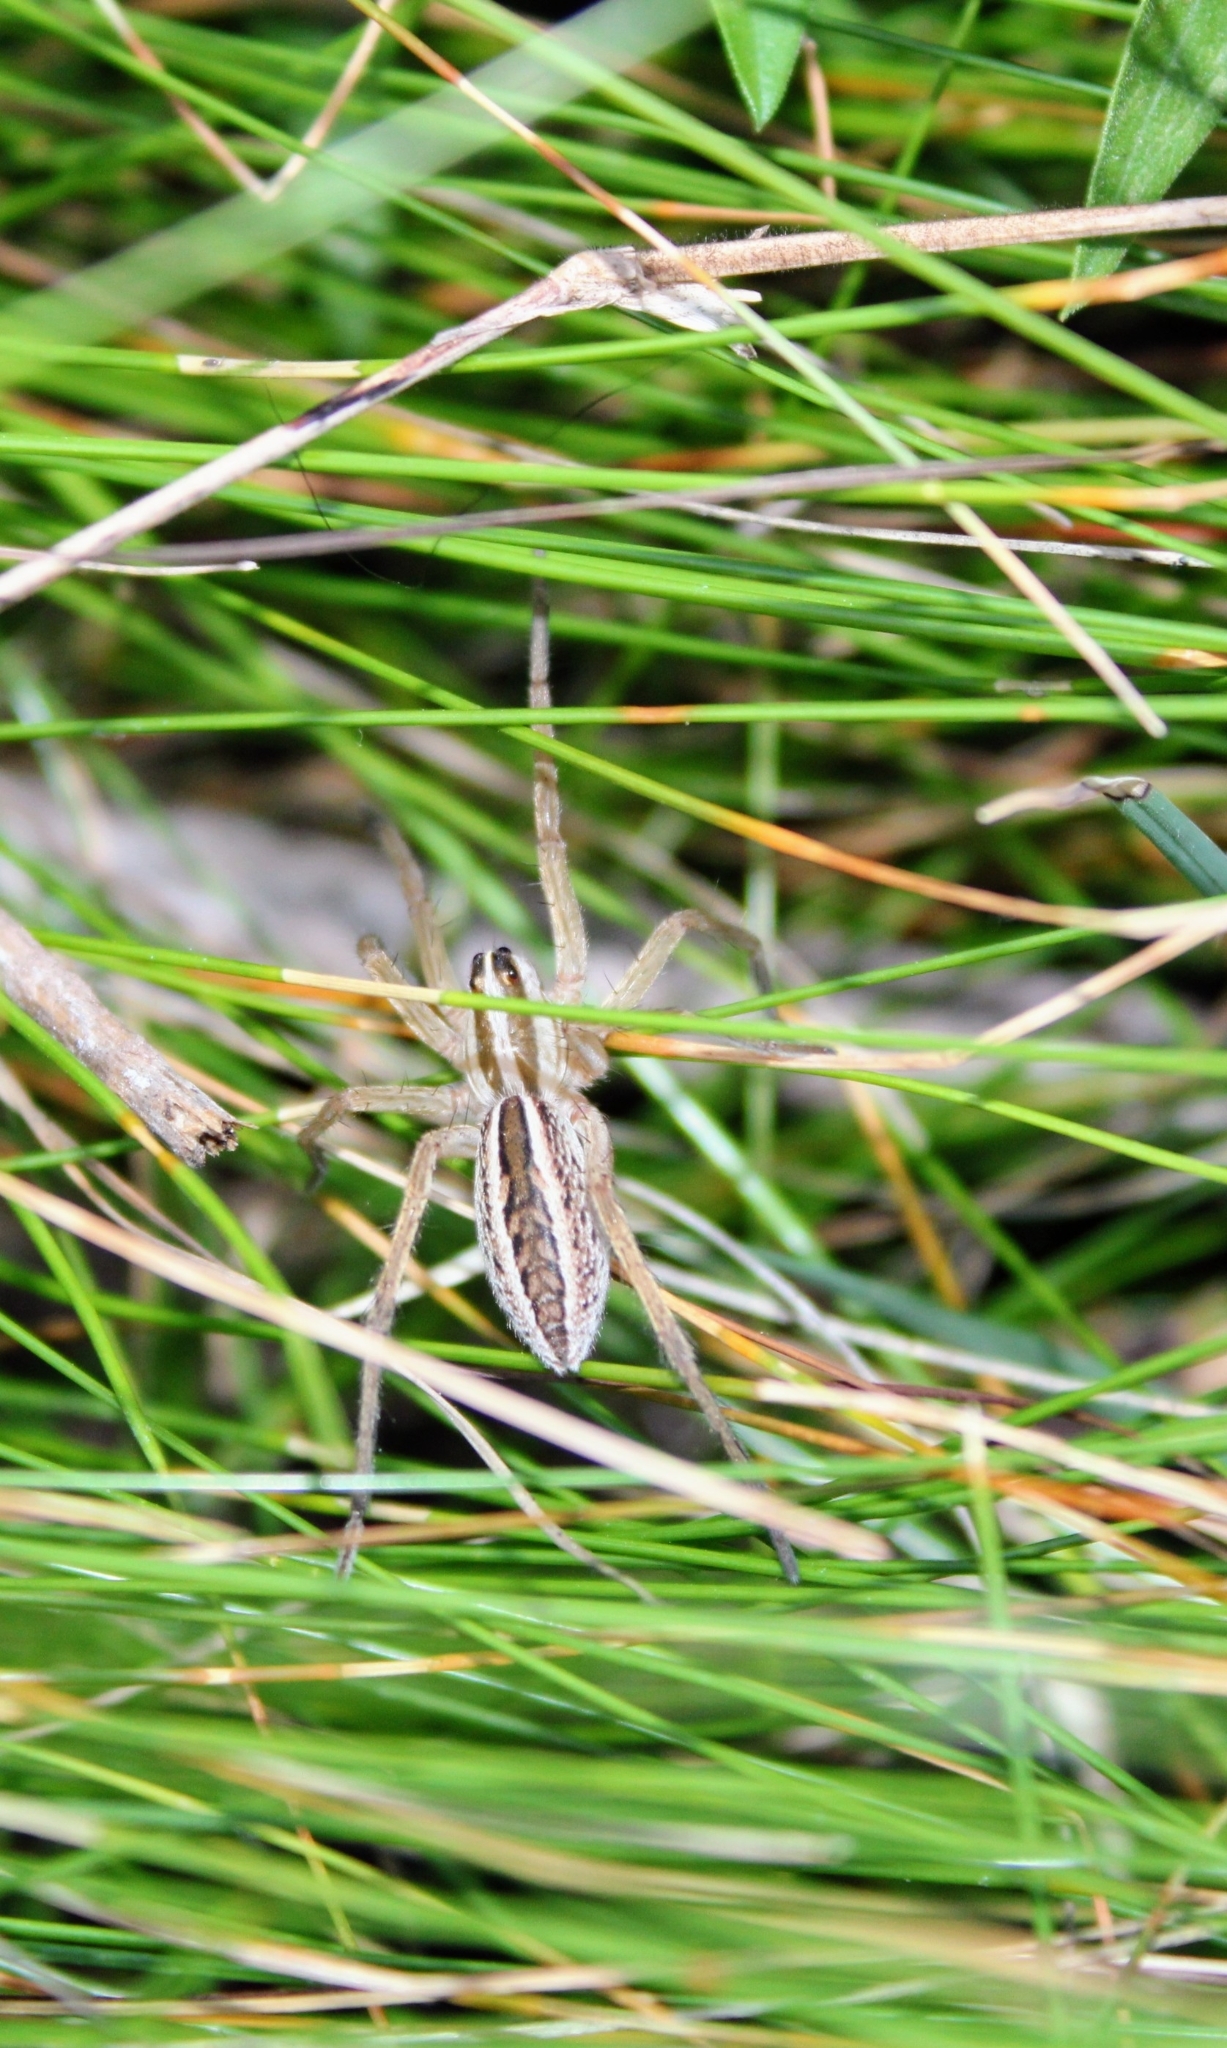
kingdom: Animalia
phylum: Arthropoda
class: Arachnida
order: Araneae
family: Lycosidae
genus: Rabidosa
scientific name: Rabidosa rabida
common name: Rabid wolf spider
